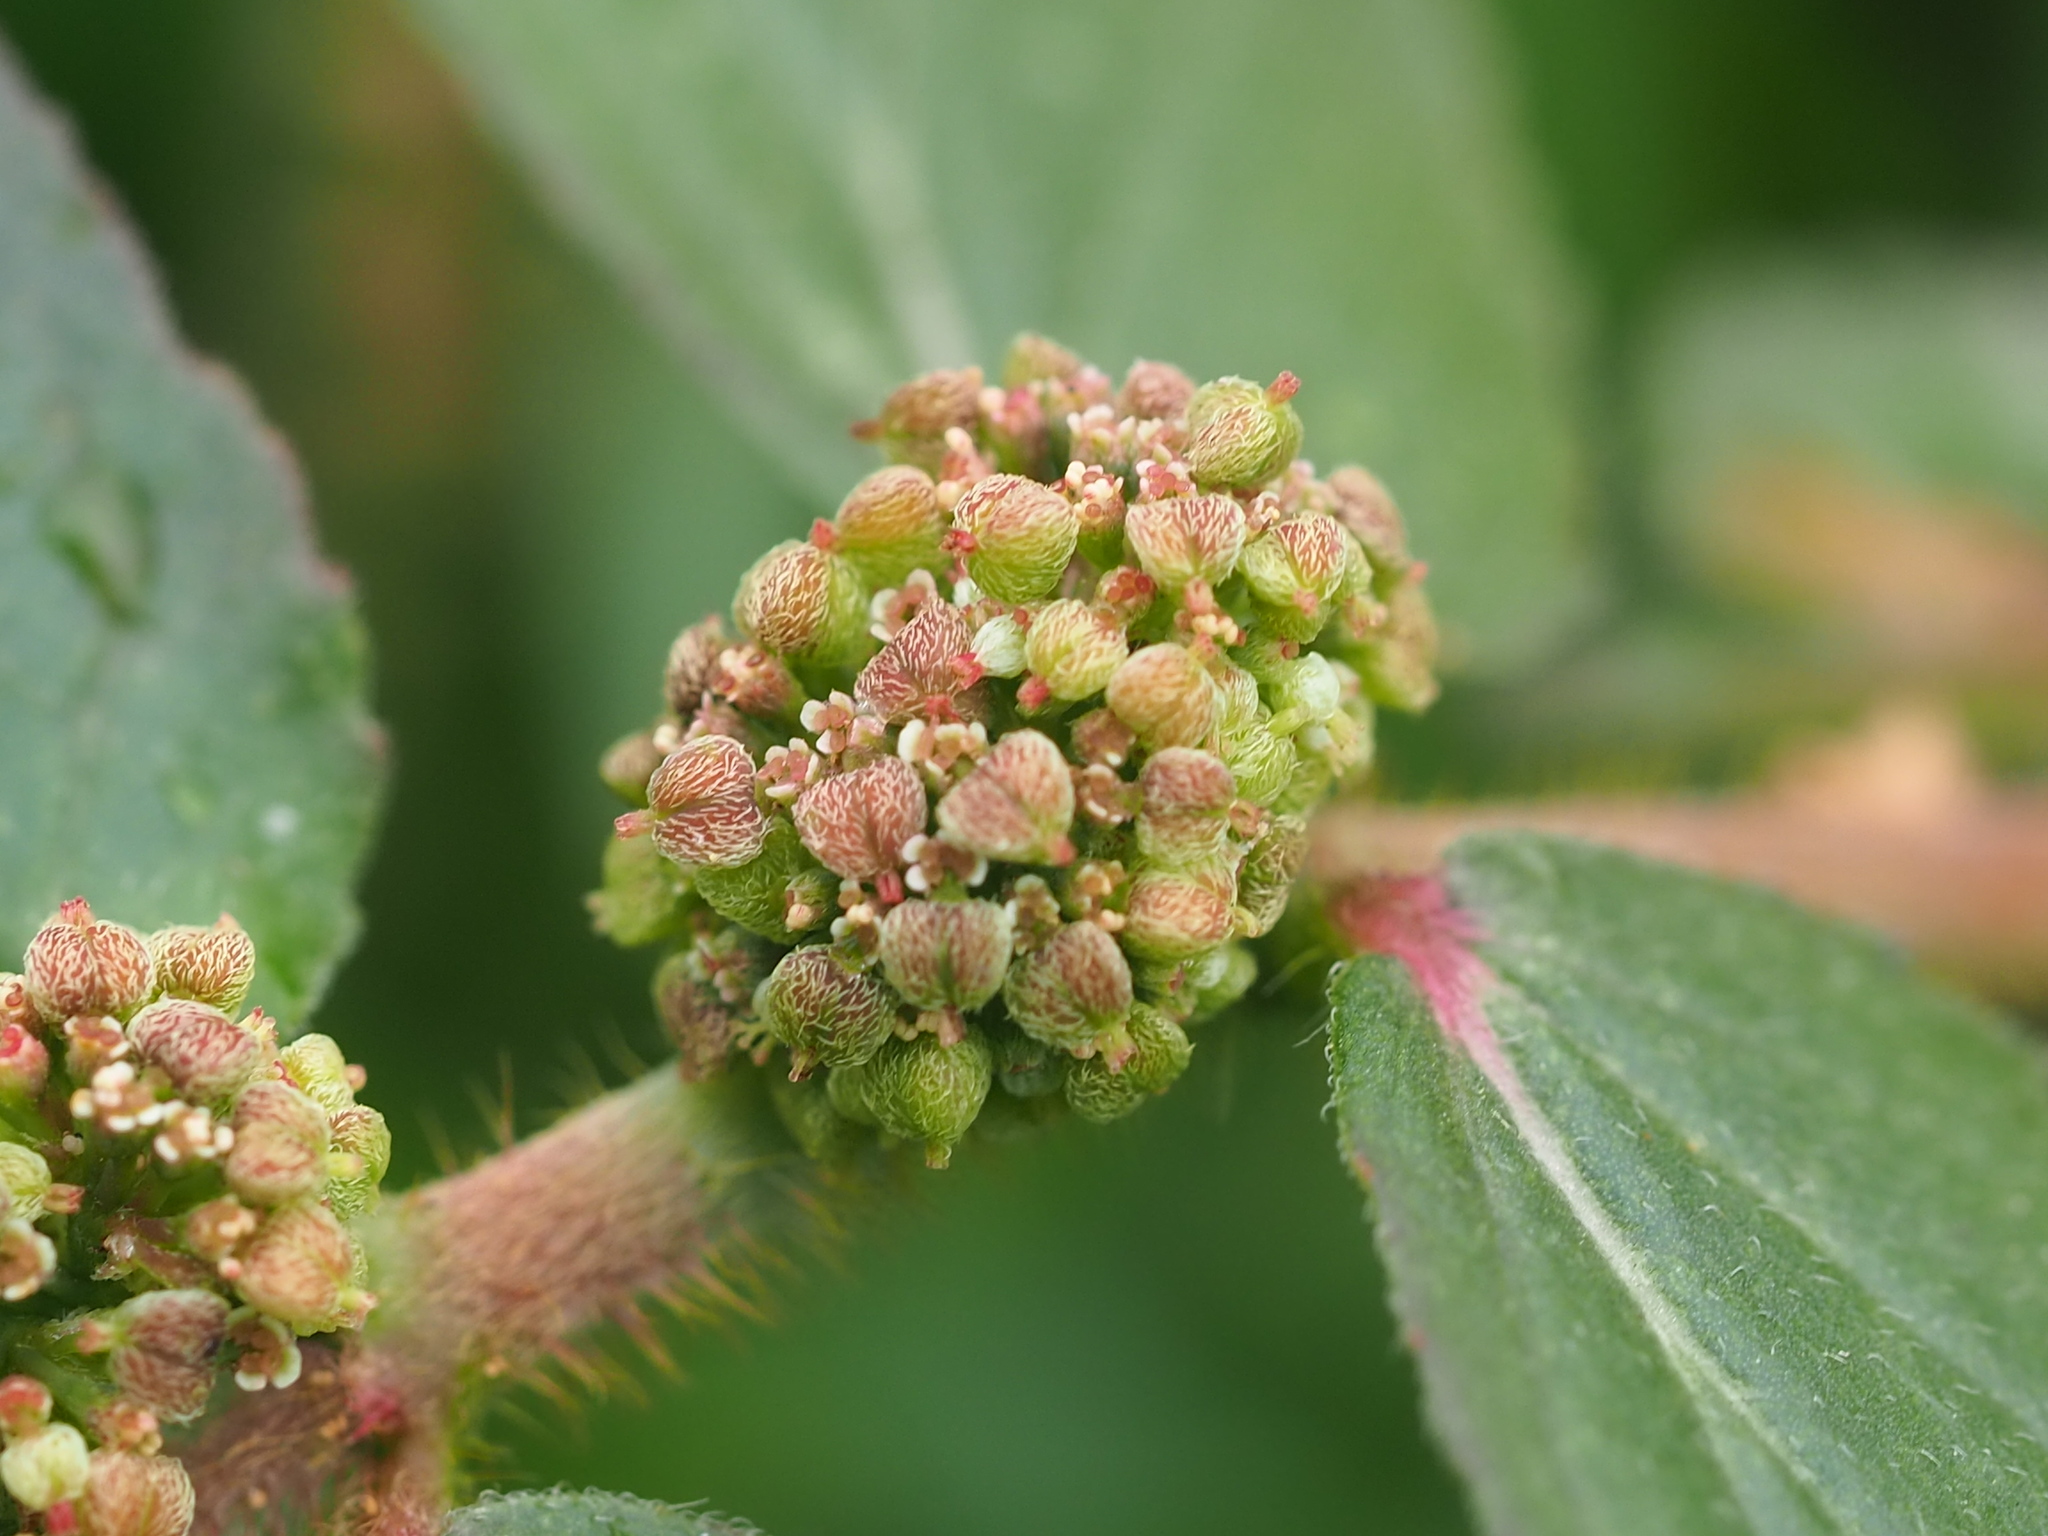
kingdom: Plantae
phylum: Tracheophyta
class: Magnoliopsida
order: Malpighiales
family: Euphorbiaceae
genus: Euphorbia
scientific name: Euphorbia hirta
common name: Pillpod sandmat
